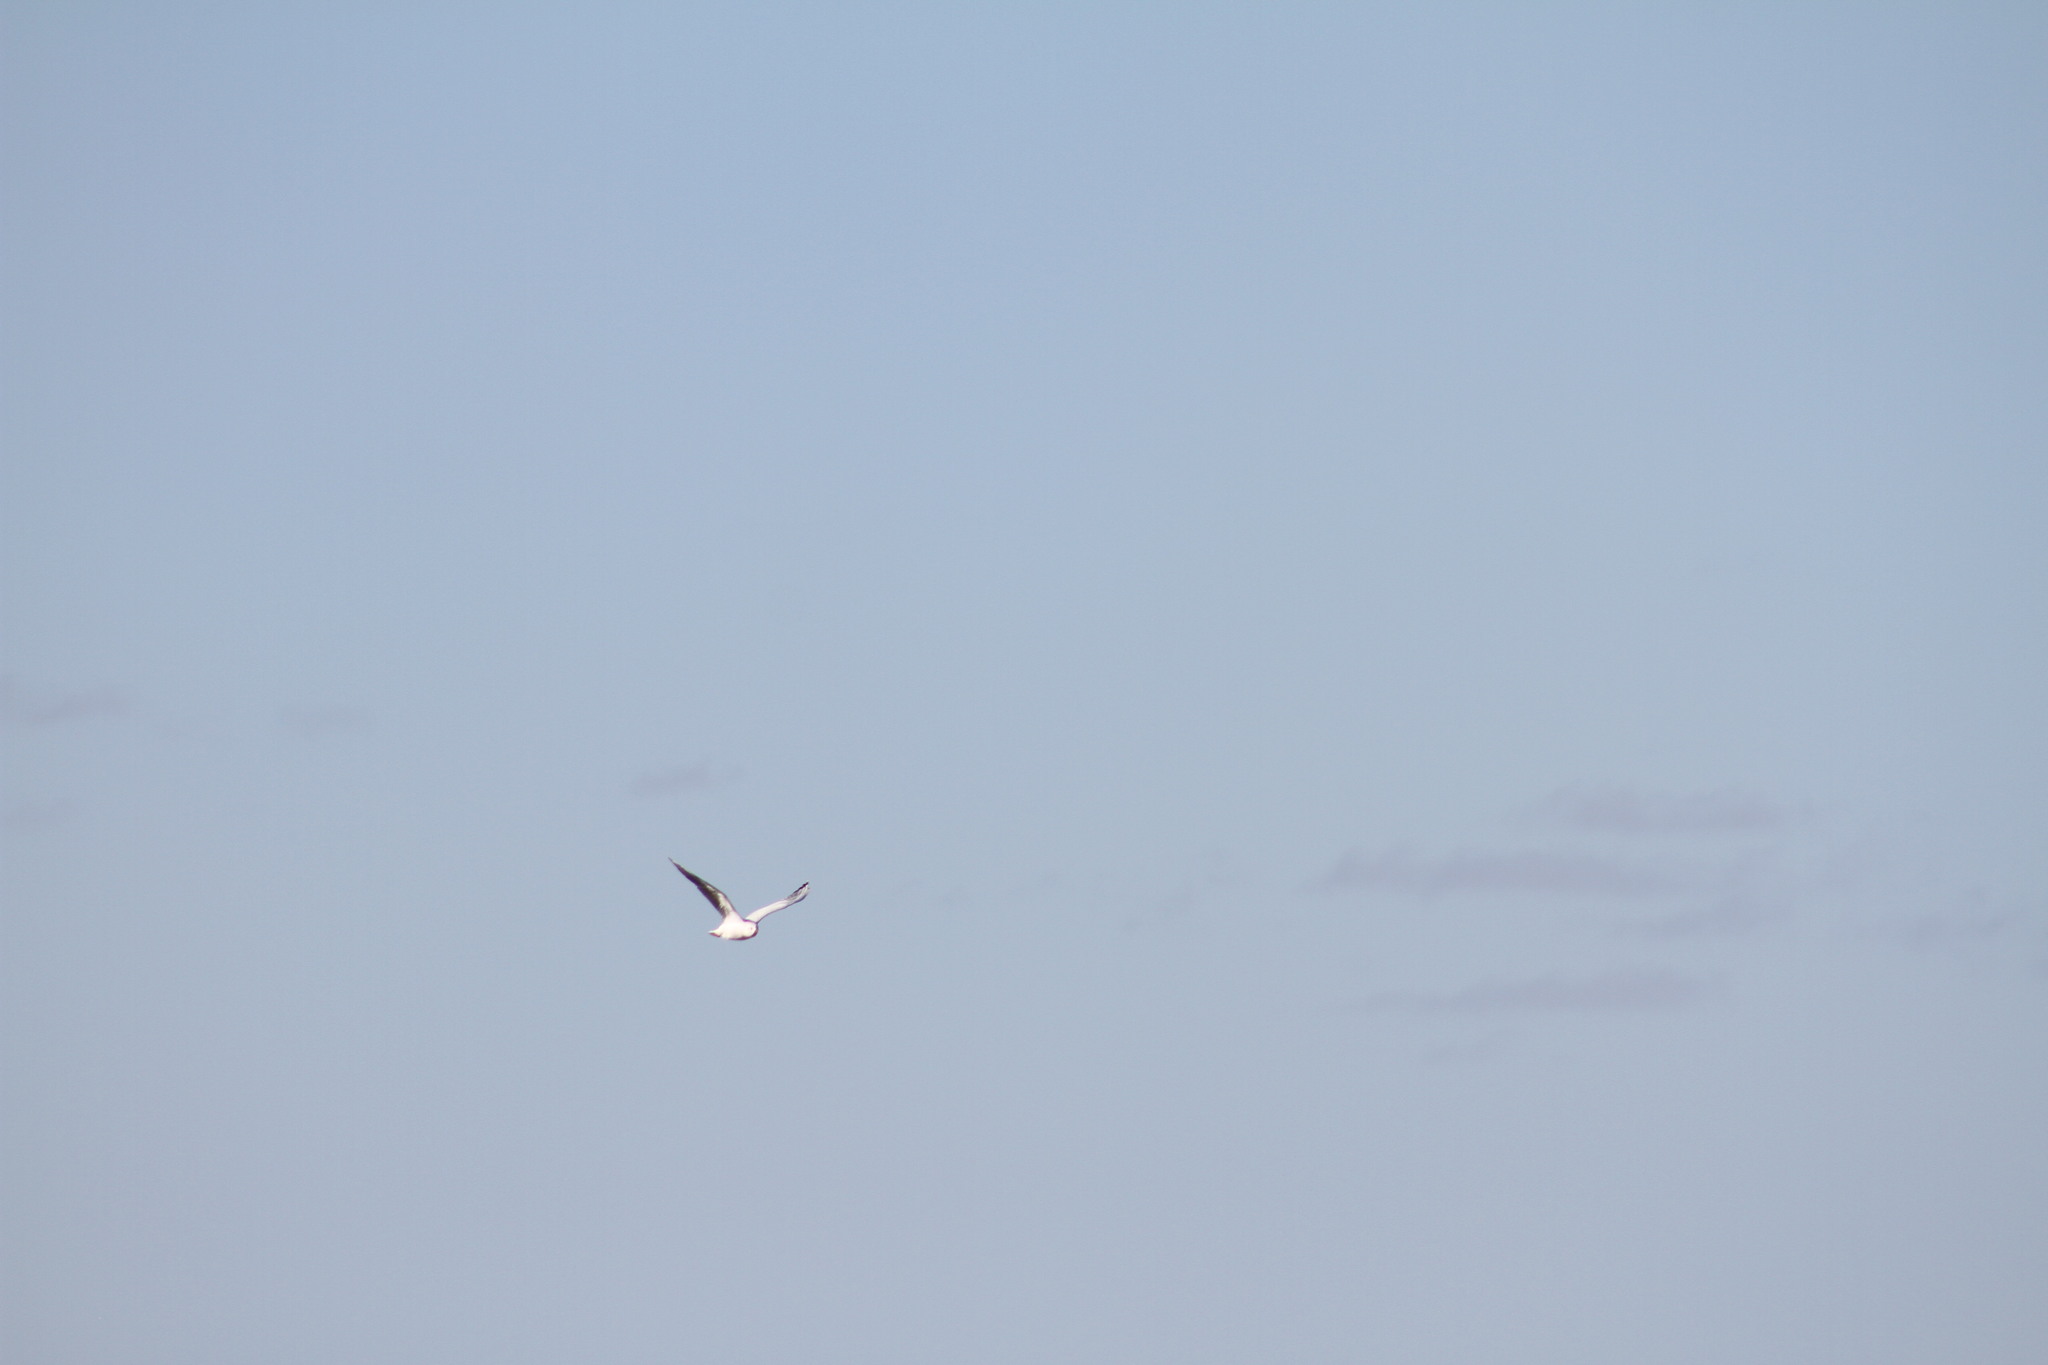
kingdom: Animalia
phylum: Chordata
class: Aves
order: Charadriiformes
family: Laridae
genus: Chroicocephalus
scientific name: Chroicocephalus maculipennis
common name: Brown-hooded gull
